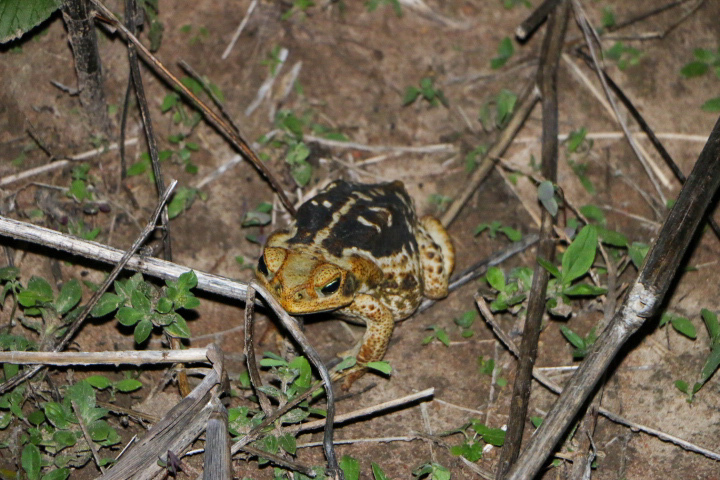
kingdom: Animalia
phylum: Chordata
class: Amphibia
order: Anura
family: Bufonidae
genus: Rhinella
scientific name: Rhinella diptycha
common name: Cope's toad
